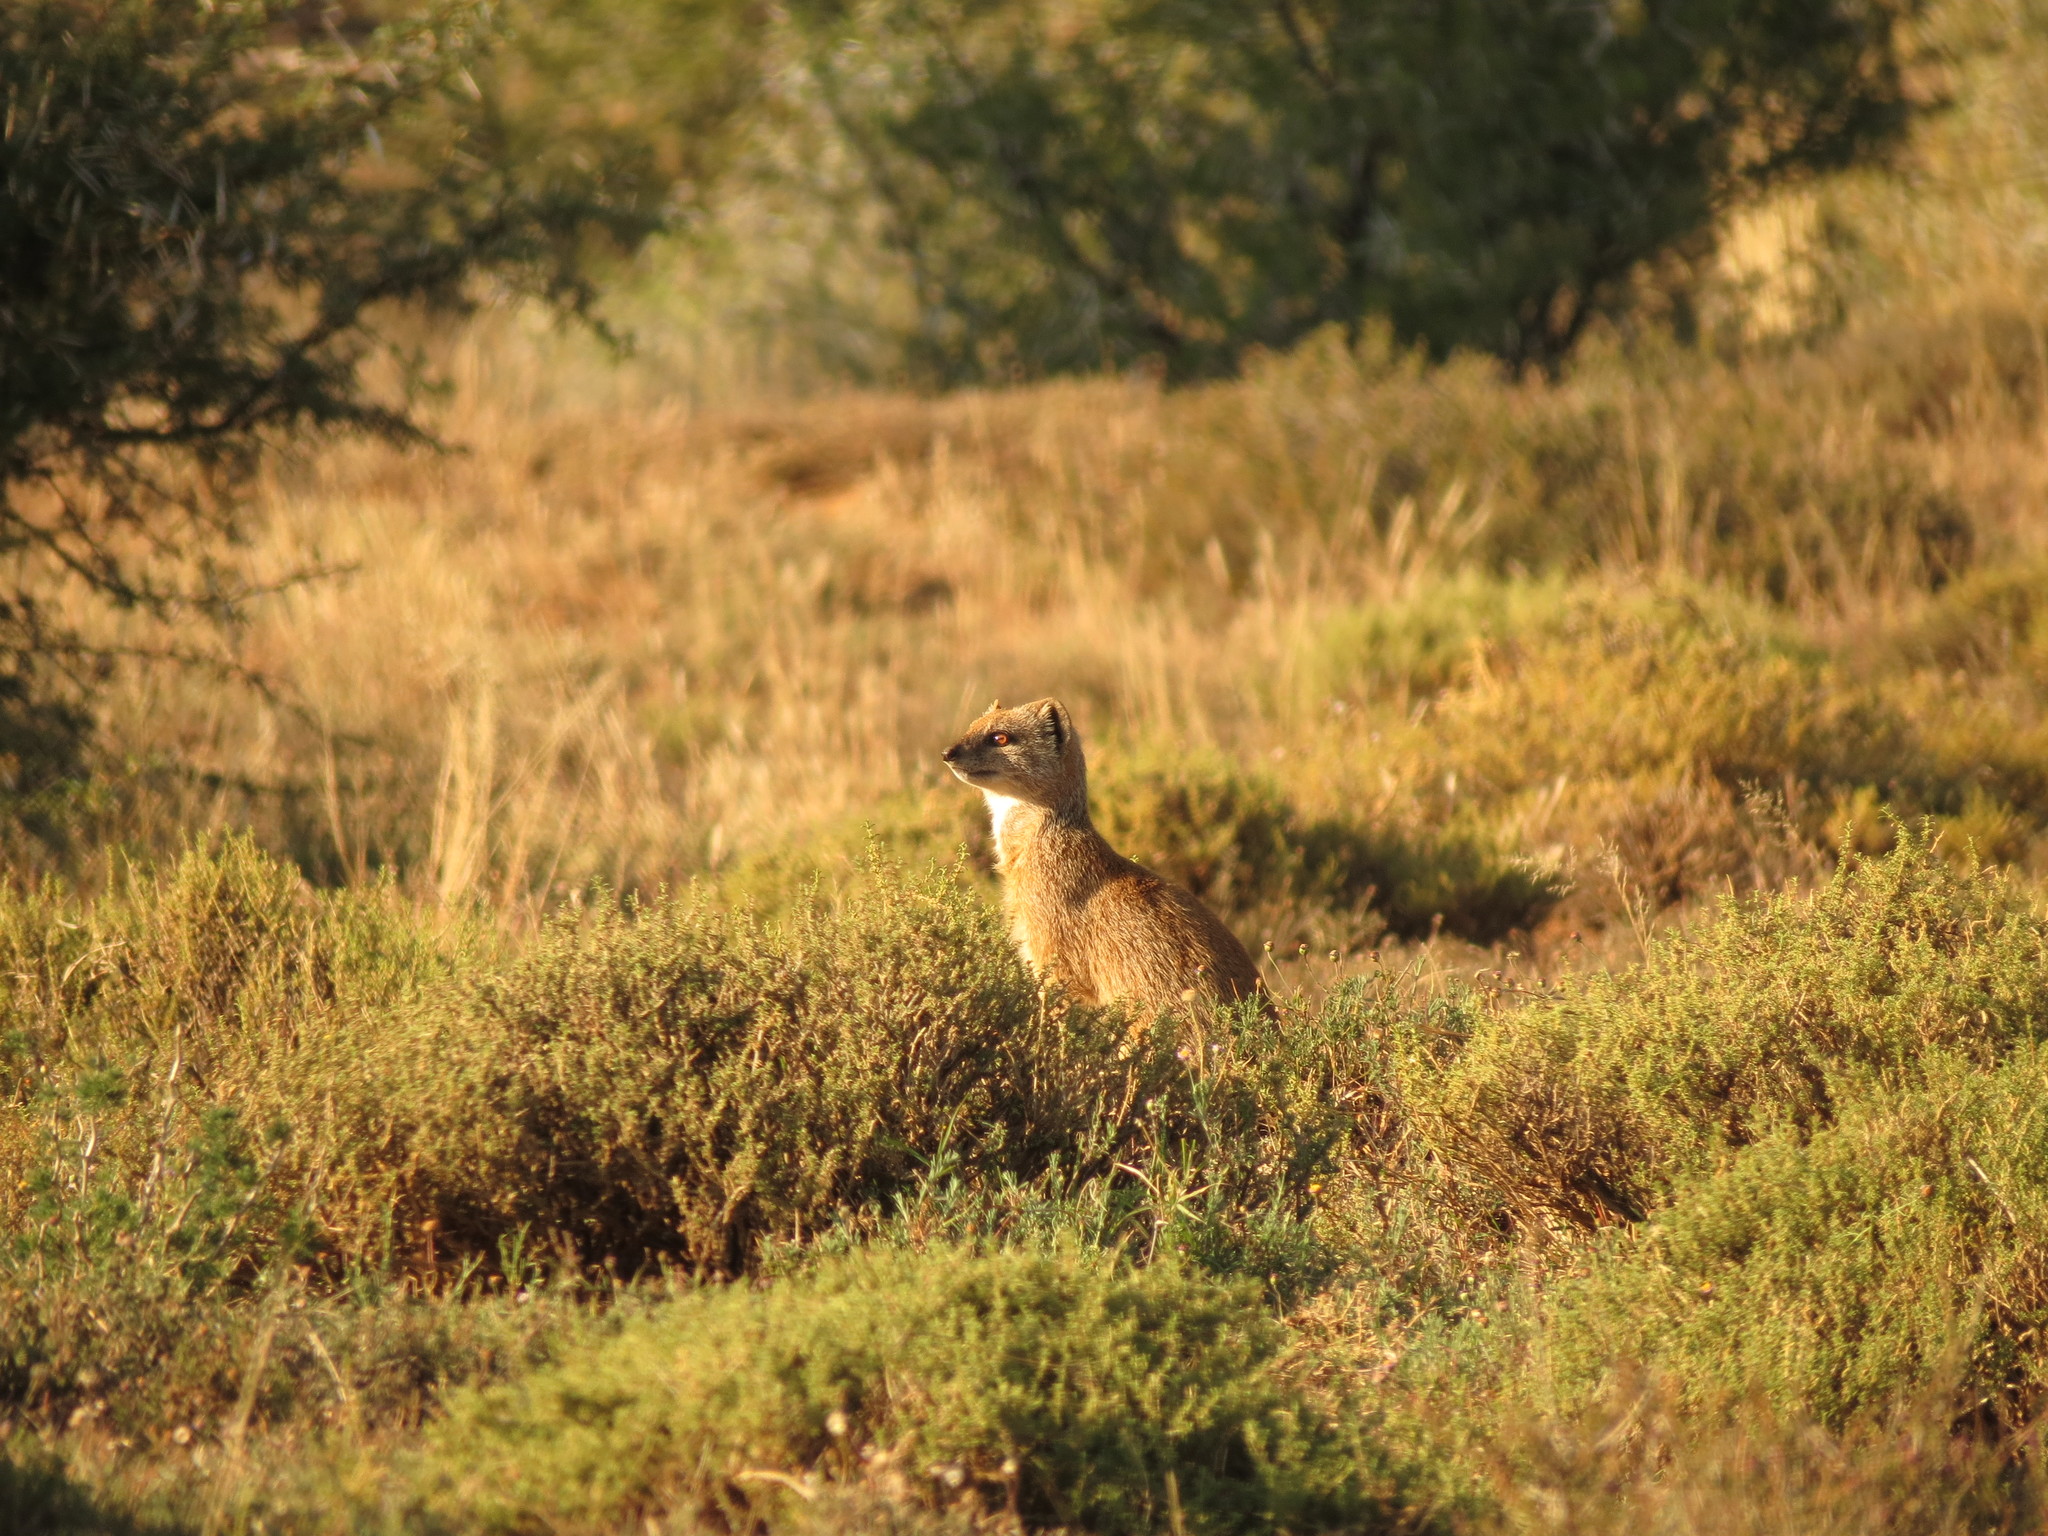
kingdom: Animalia
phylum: Chordata
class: Mammalia
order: Carnivora
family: Herpestidae
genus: Cynictis
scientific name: Cynictis penicillata
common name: Yellow mongoose
